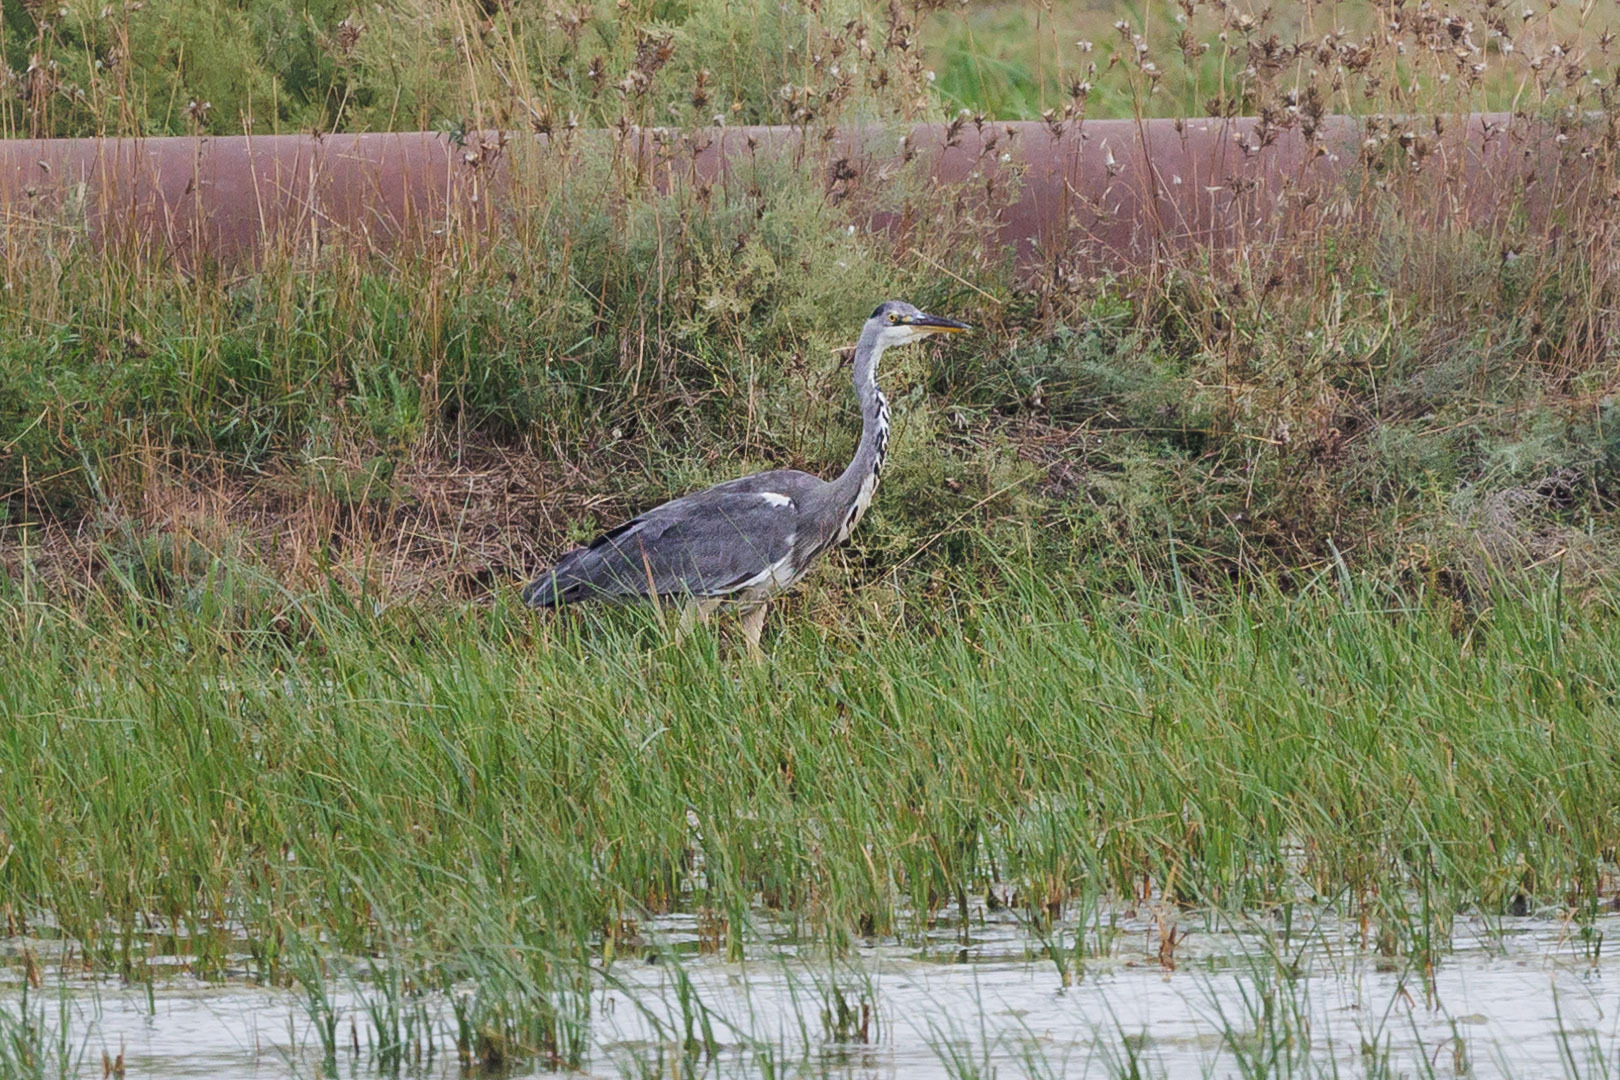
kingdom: Animalia
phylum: Chordata
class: Aves
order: Pelecaniformes
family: Ardeidae
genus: Ardea
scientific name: Ardea cinerea
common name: Grey heron
